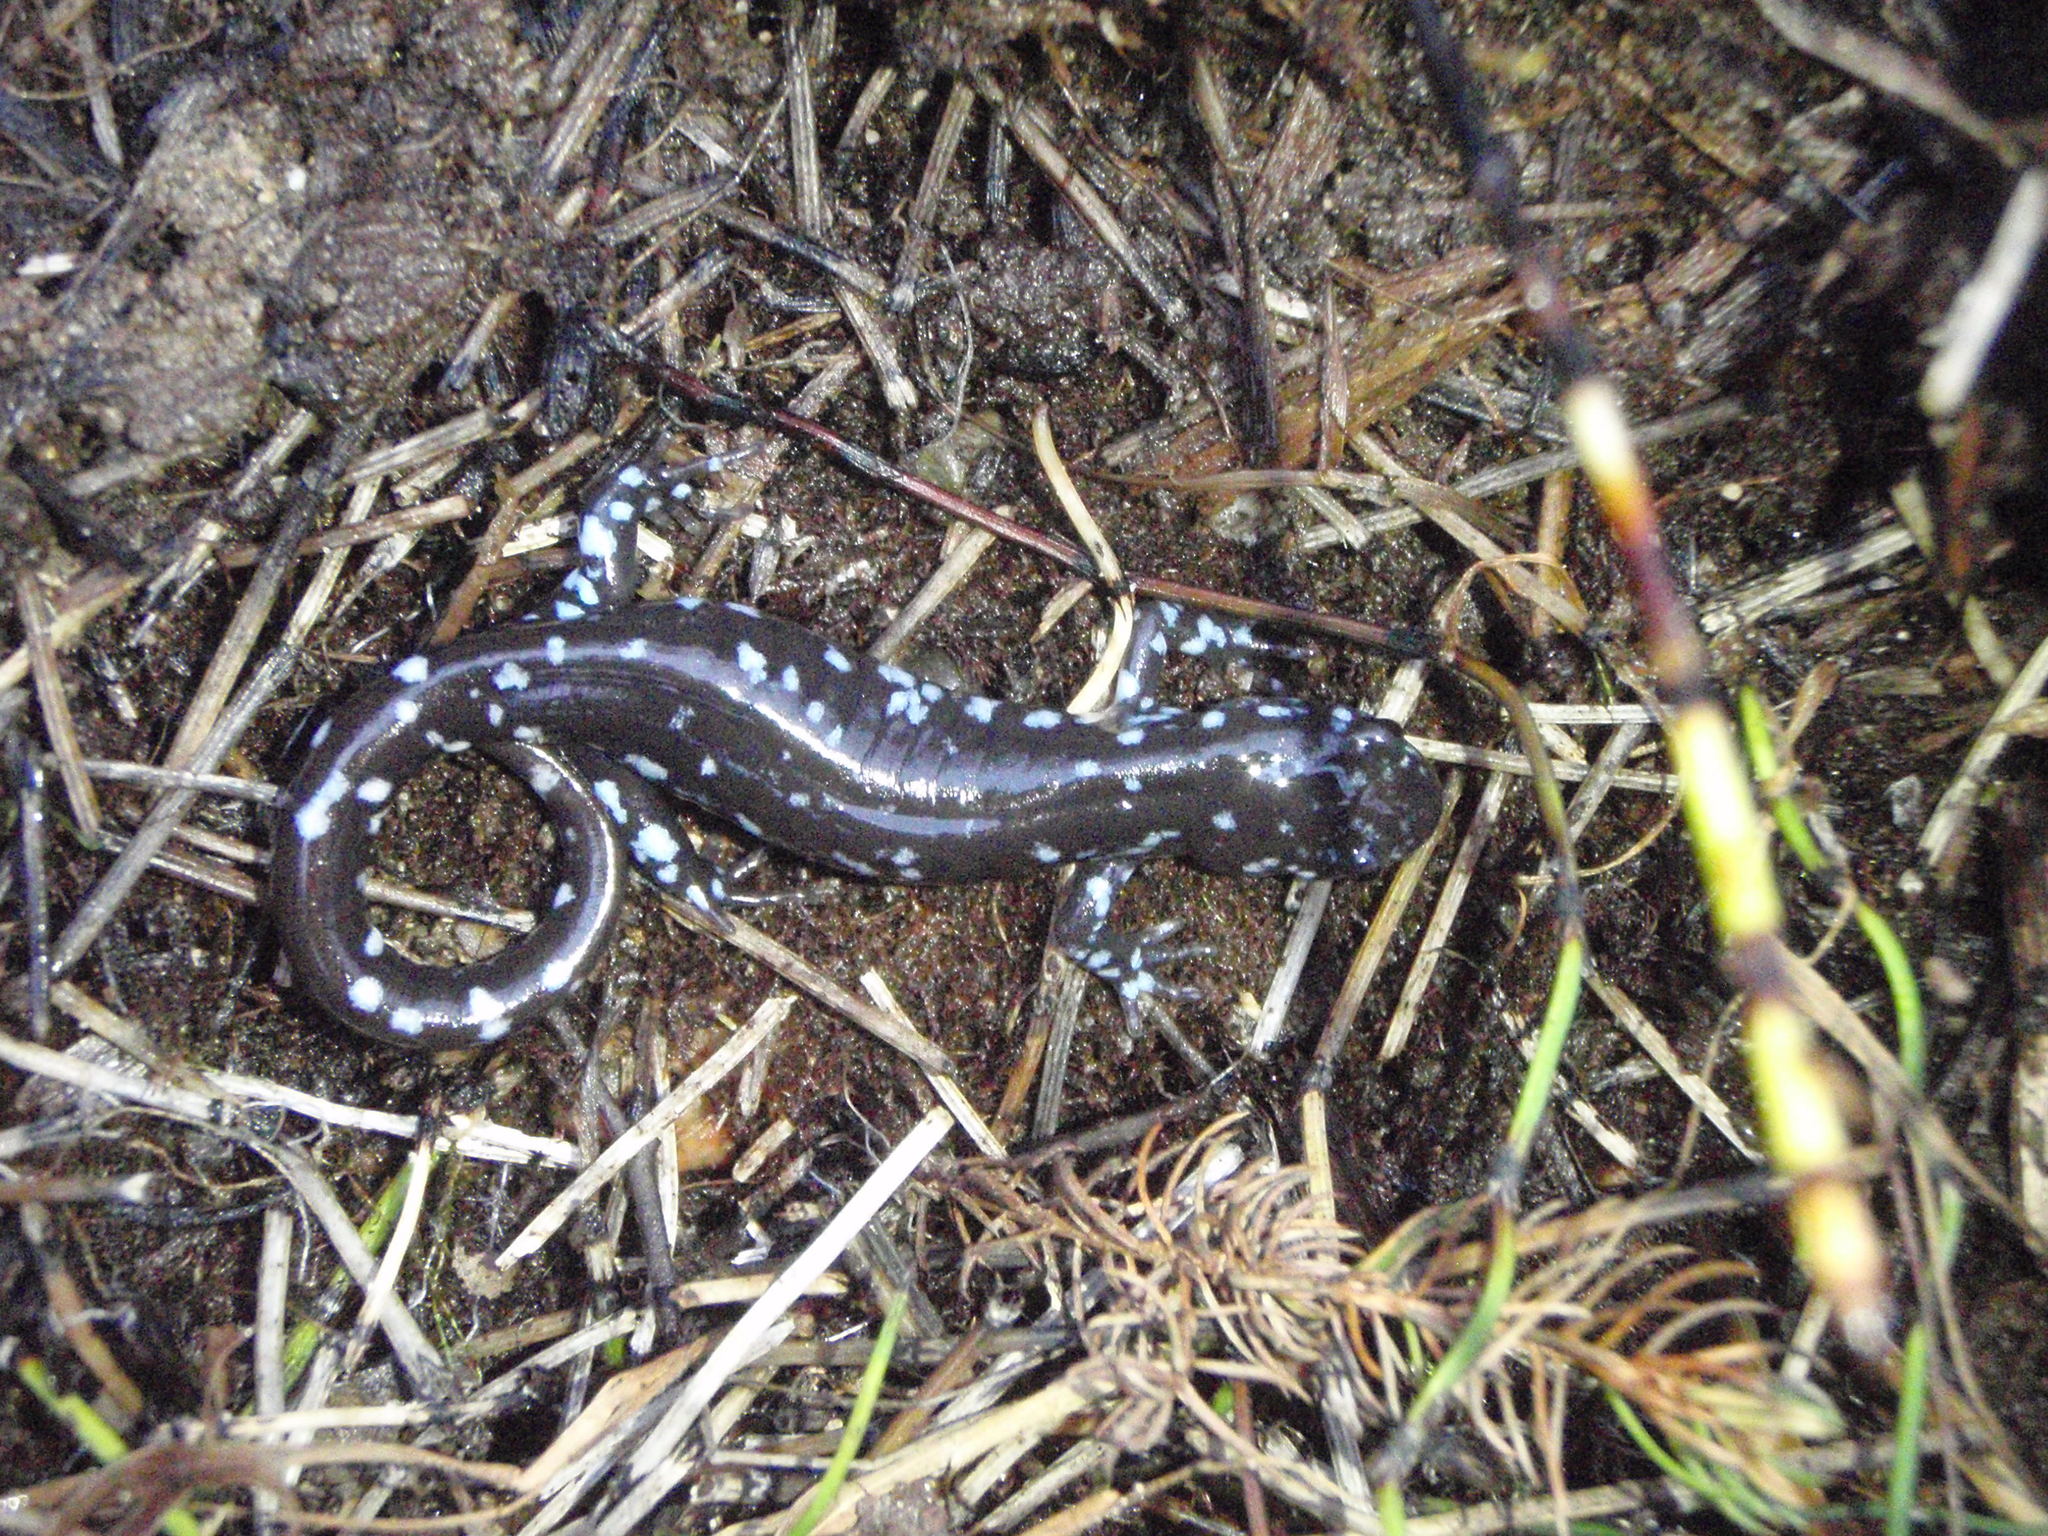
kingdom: Animalia
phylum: Chordata
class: Amphibia
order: Caudata
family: Ambystomatidae
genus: Ambystoma
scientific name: Ambystoma laterale
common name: Blue-spotted salamander
